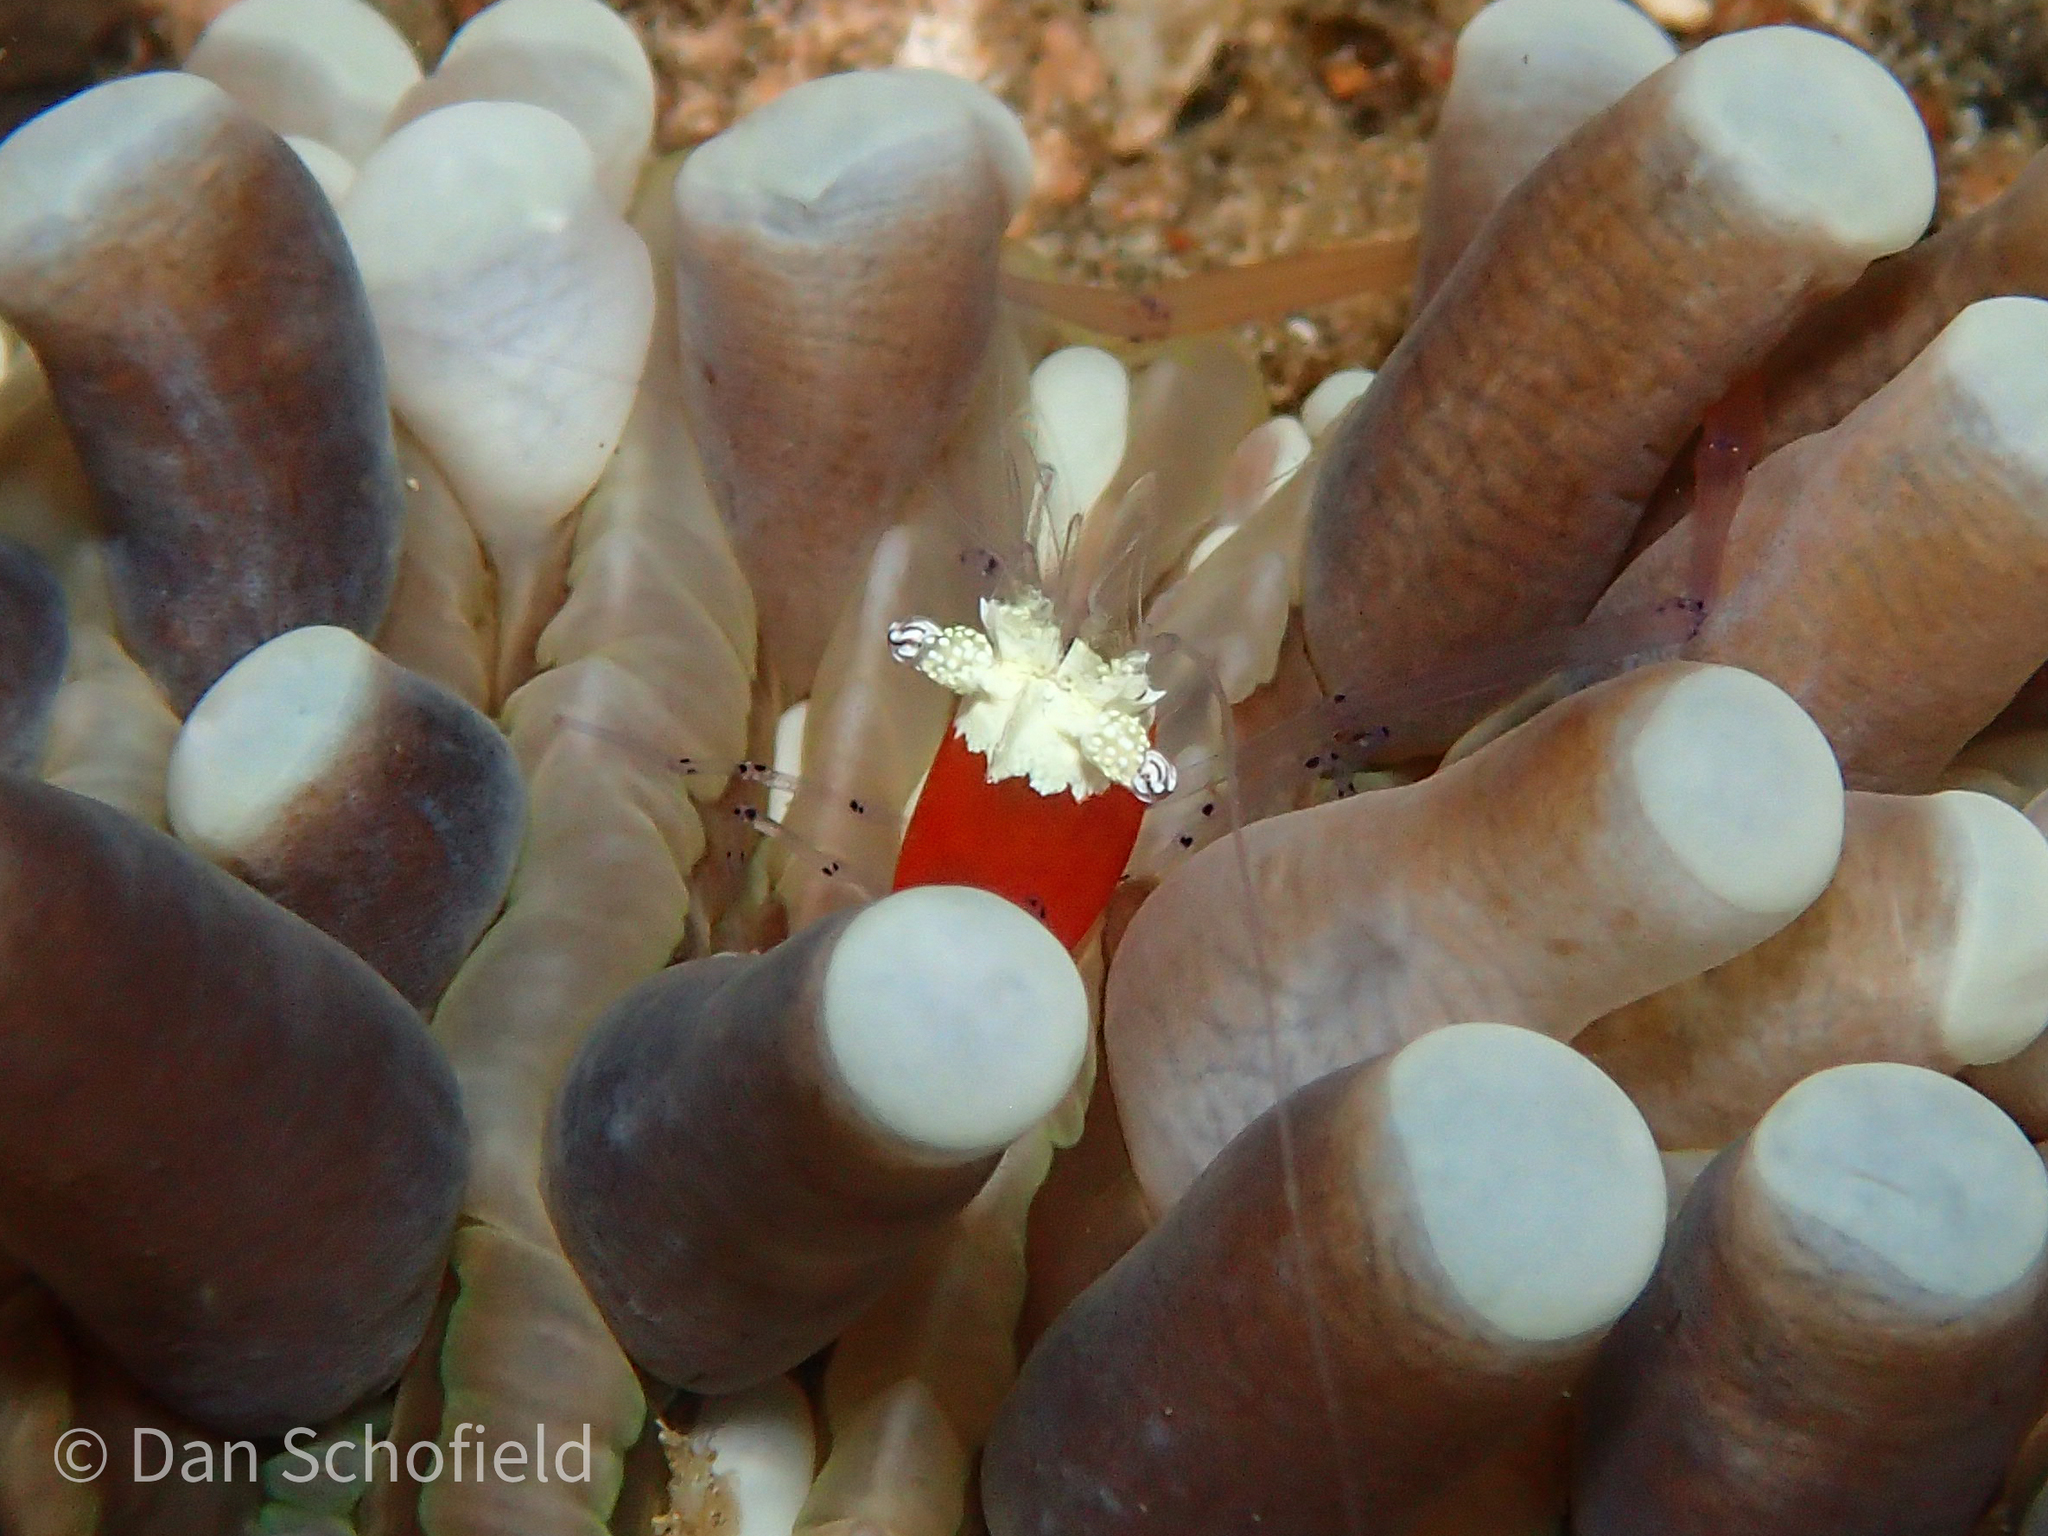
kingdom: Animalia
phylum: Arthropoda
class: Malacostraca
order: Decapoda
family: Palaemonidae
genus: Cuapetes
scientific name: Cuapetes kororensis
